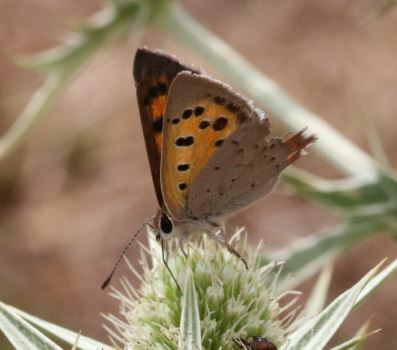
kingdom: Animalia
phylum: Arthropoda
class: Insecta
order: Lepidoptera
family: Lycaenidae
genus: Lycaena
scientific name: Lycaena phlaeas
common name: Small copper
